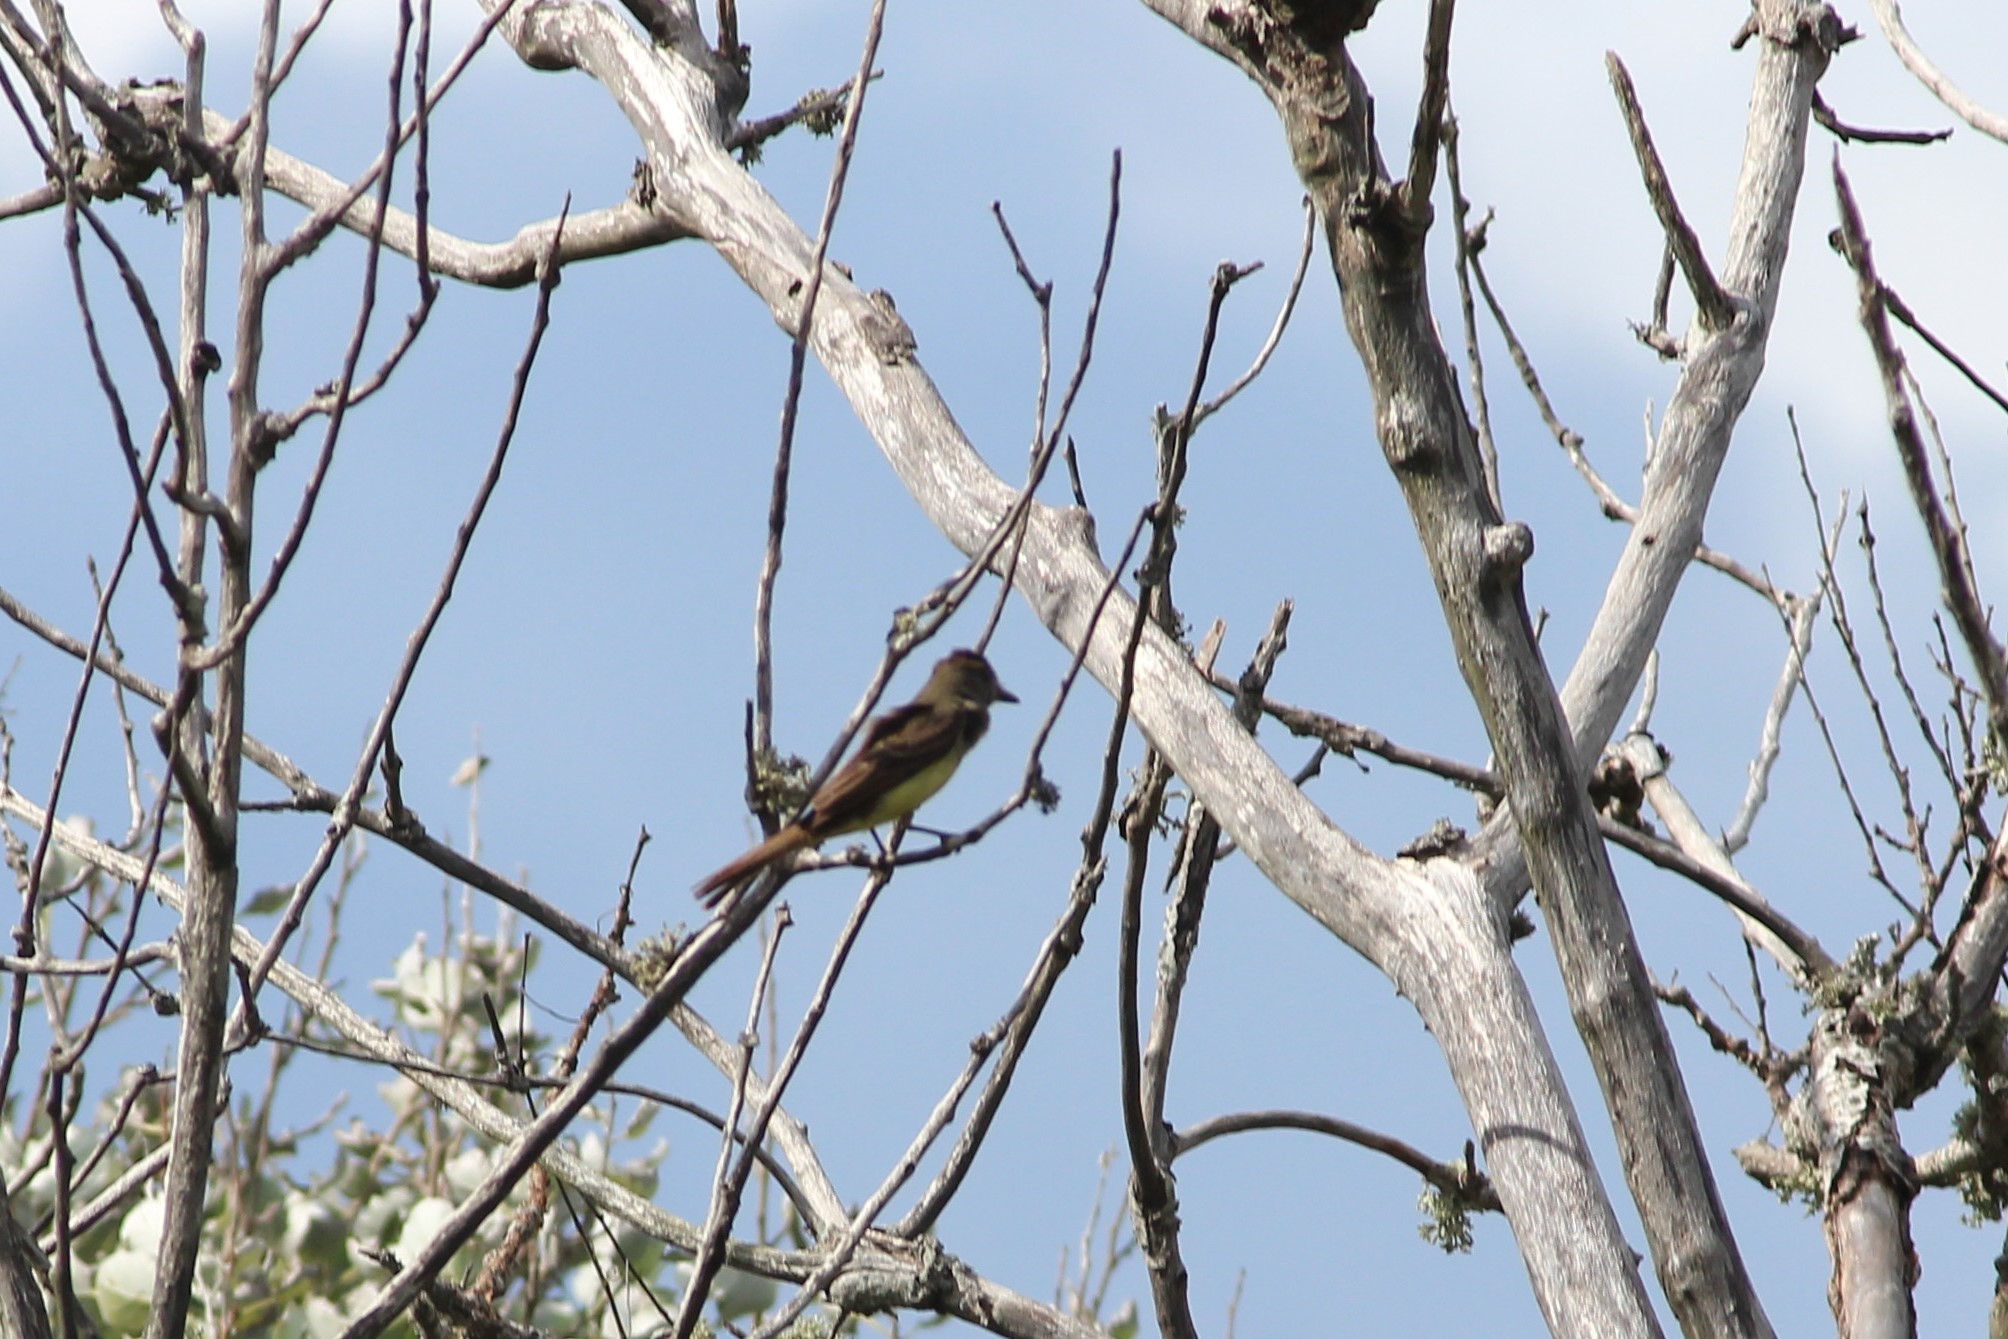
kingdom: Animalia
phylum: Chordata
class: Aves
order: Passeriformes
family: Tyrannidae
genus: Myiarchus
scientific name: Myiarchus crinitus
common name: Great crested flycatcher
